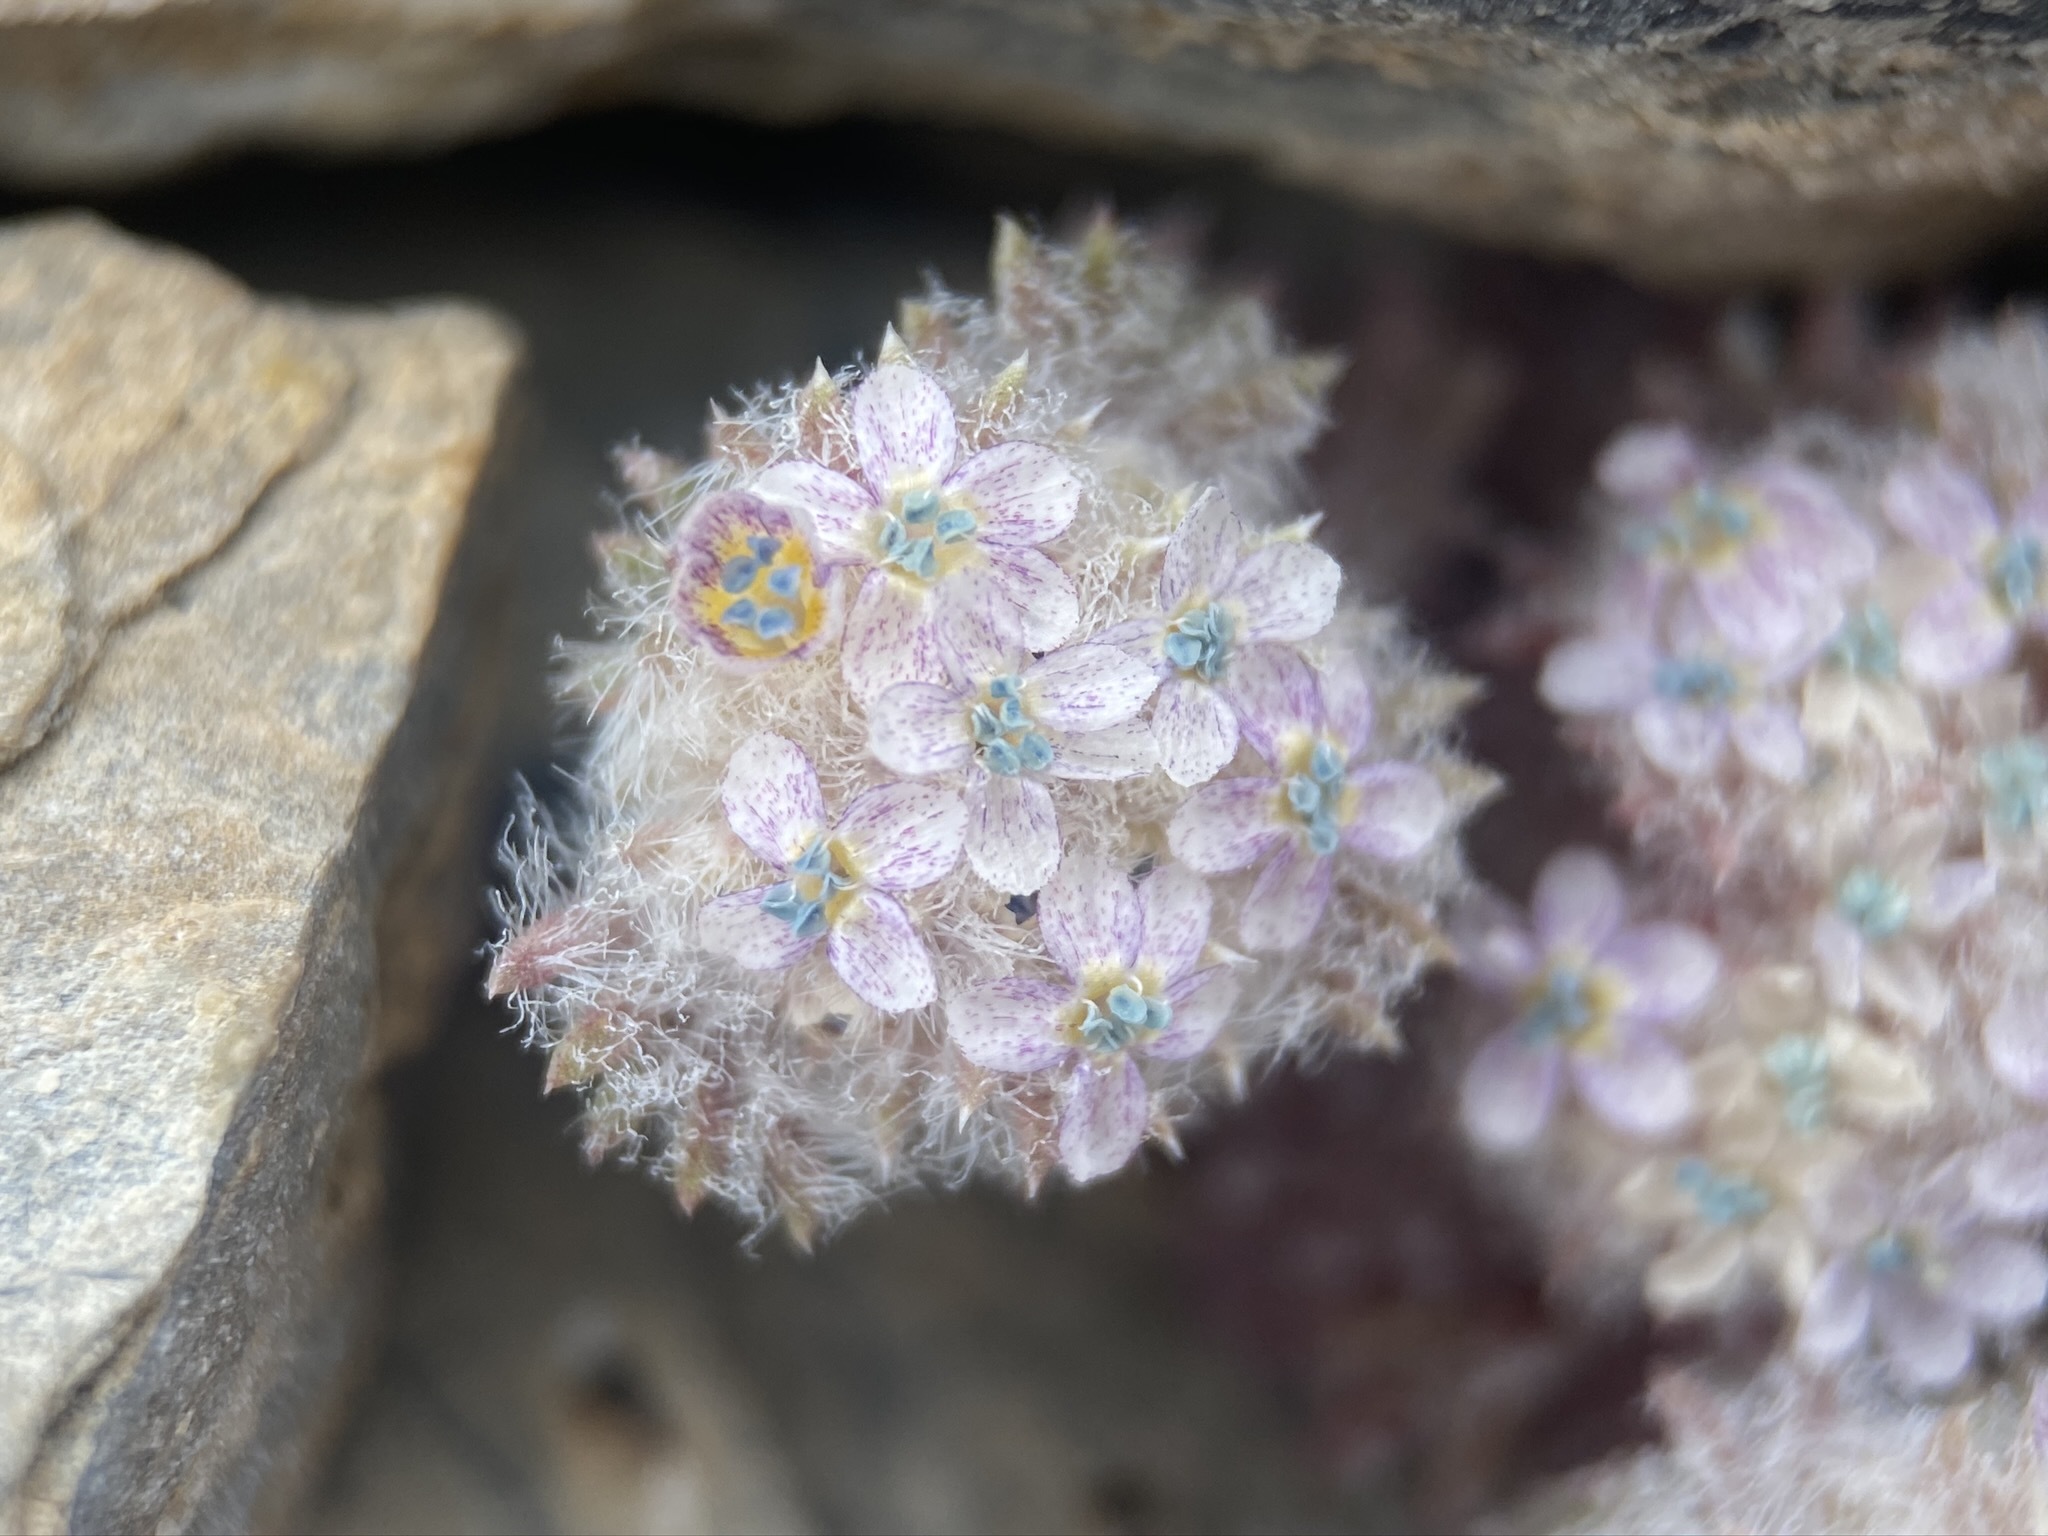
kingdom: Plantae
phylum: Tracheophyta
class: Magnoliopsida
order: Ericales
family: Polemoniaceae
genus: Ipomopsis
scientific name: Ipomopsis congesta
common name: Ball-head gilia
